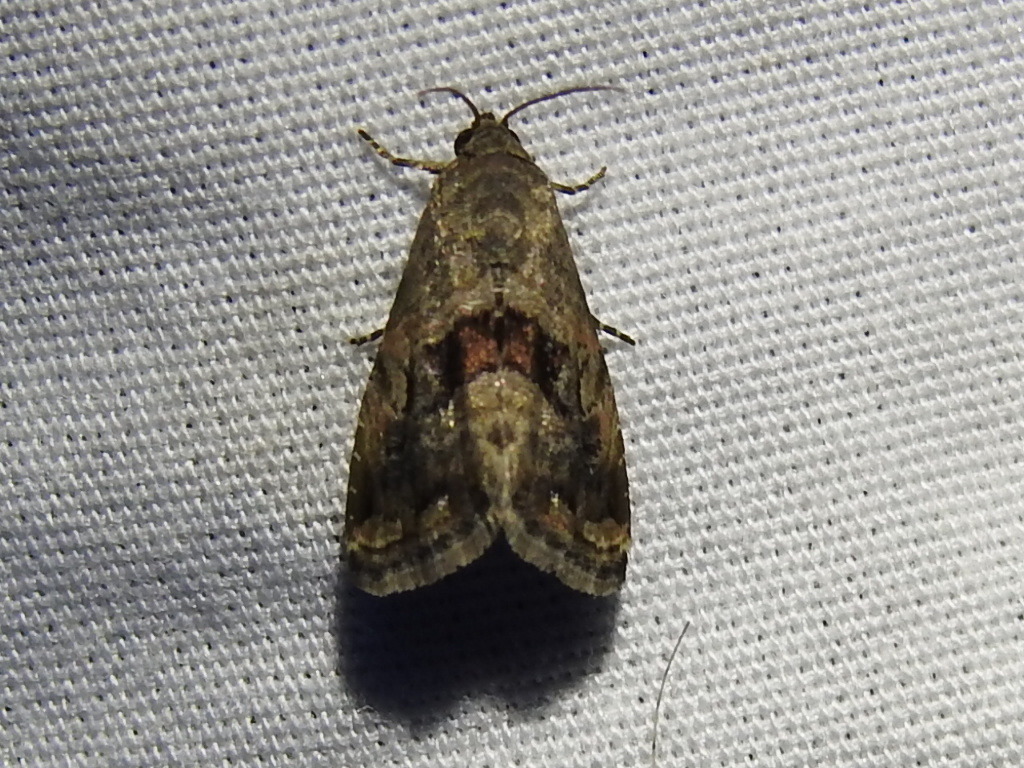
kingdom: Animalia
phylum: Arthropoda
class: Insecta
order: Lepidoptera
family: Noctuidae
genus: Tripudia
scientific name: Tripudia quadrifera
